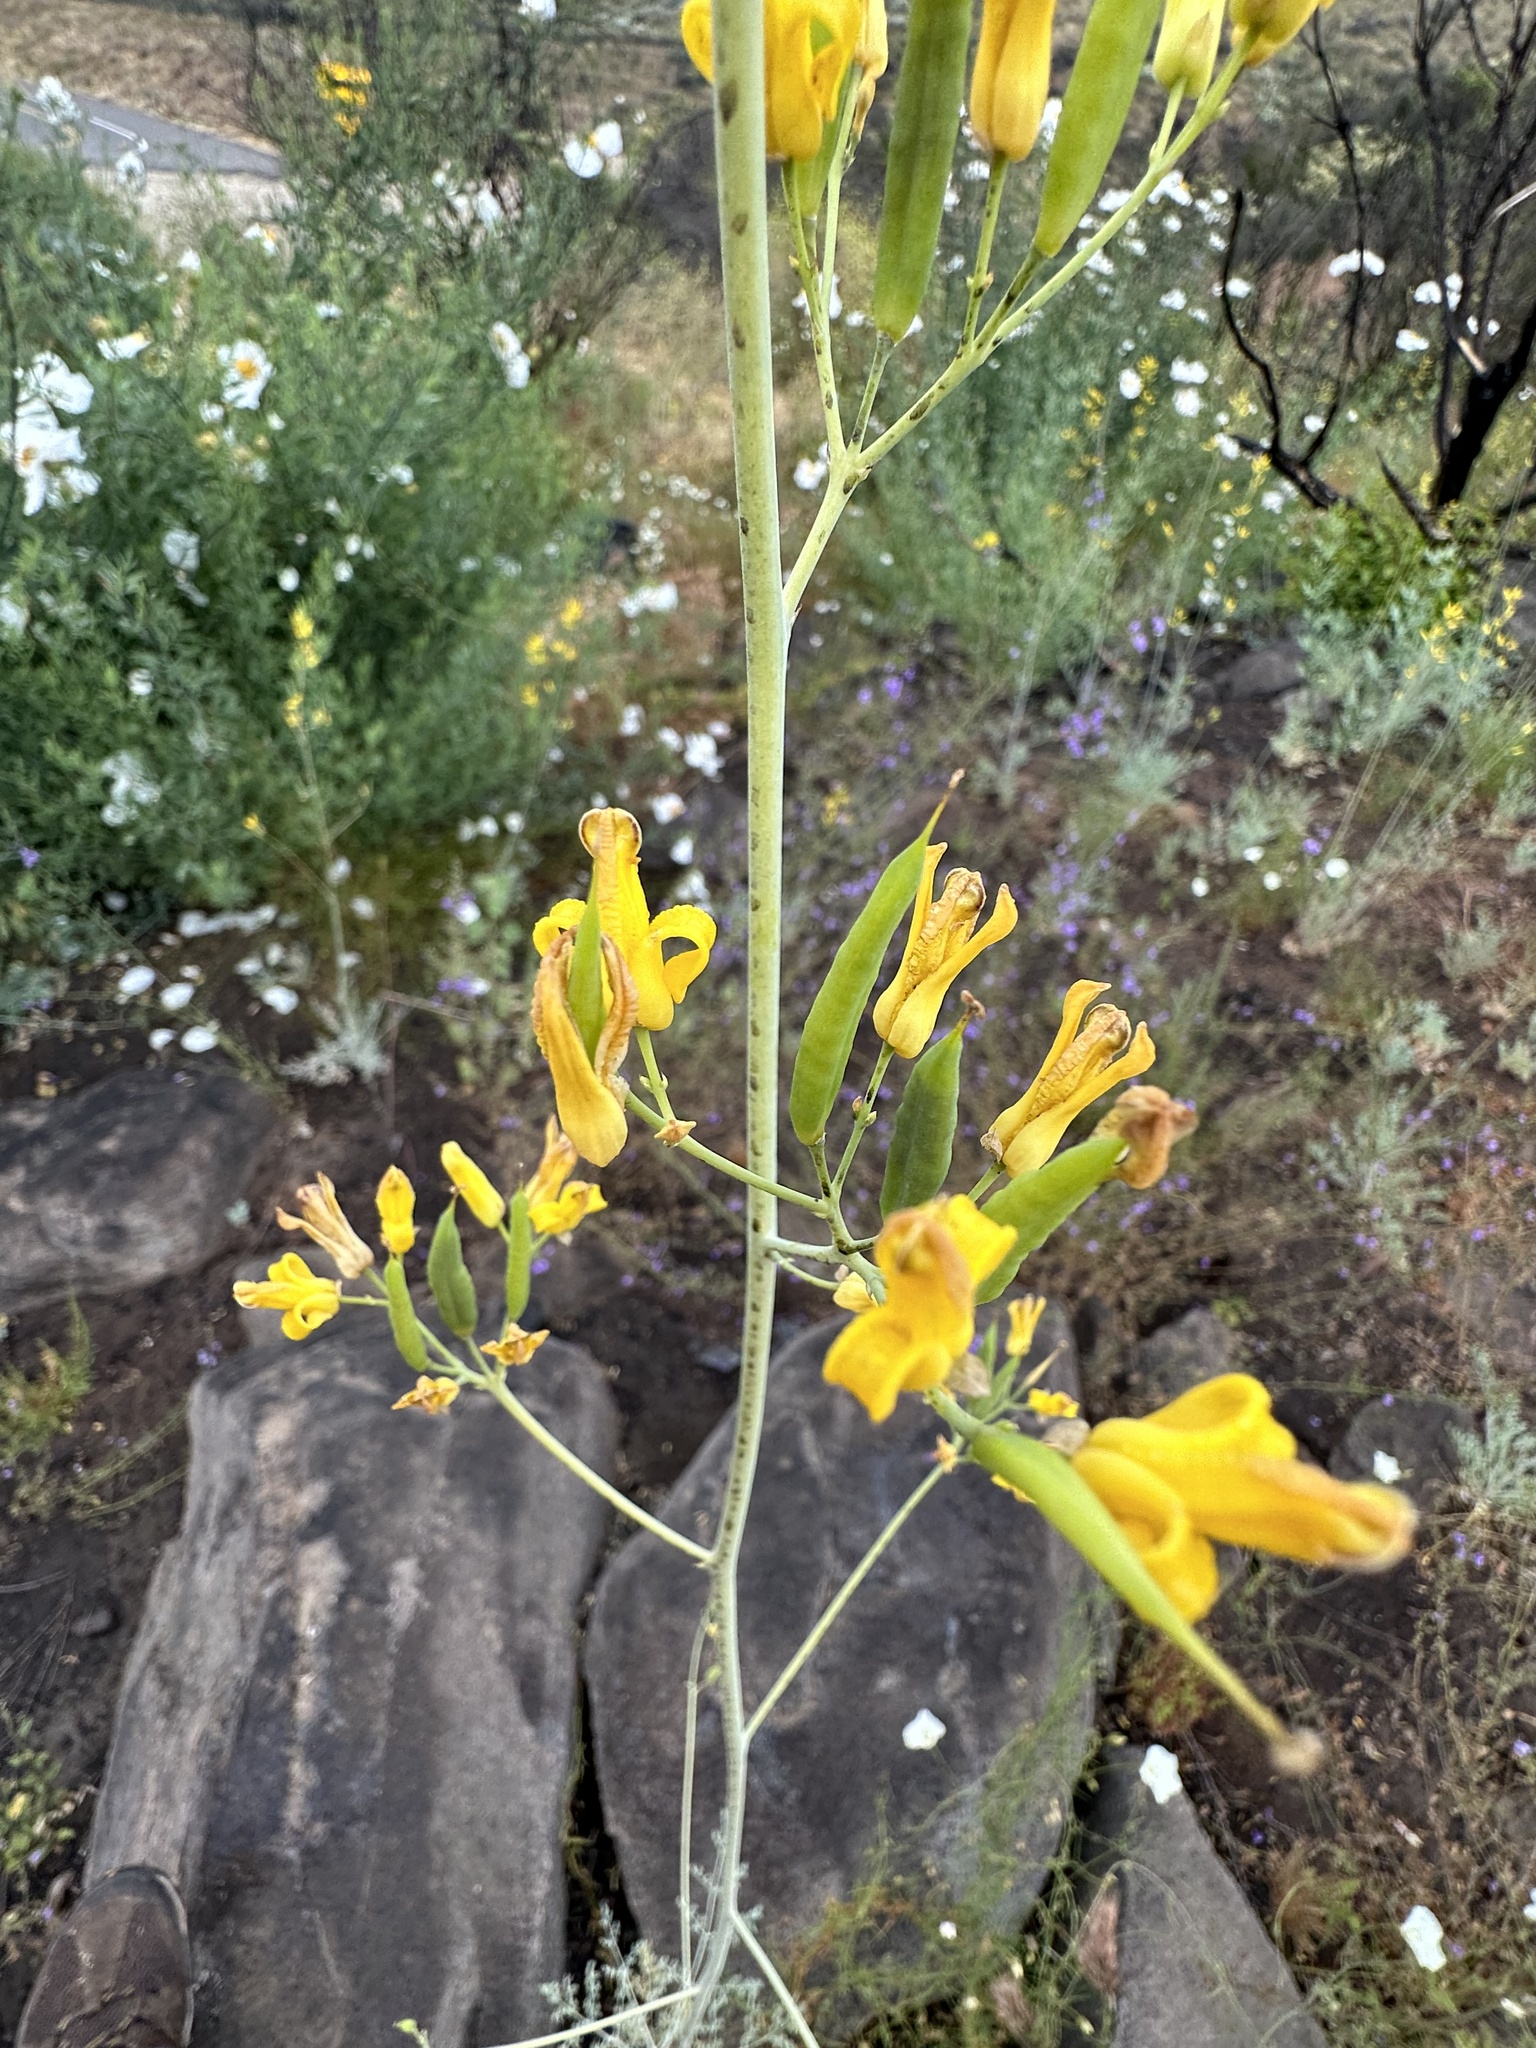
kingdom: Plantae
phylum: Tracheophyta
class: Magnoliopsida
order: Ranunculales
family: Papaveraceae
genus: Ehrendorferia
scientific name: Ehrendorferia chrysantha
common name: Golden eardrops
